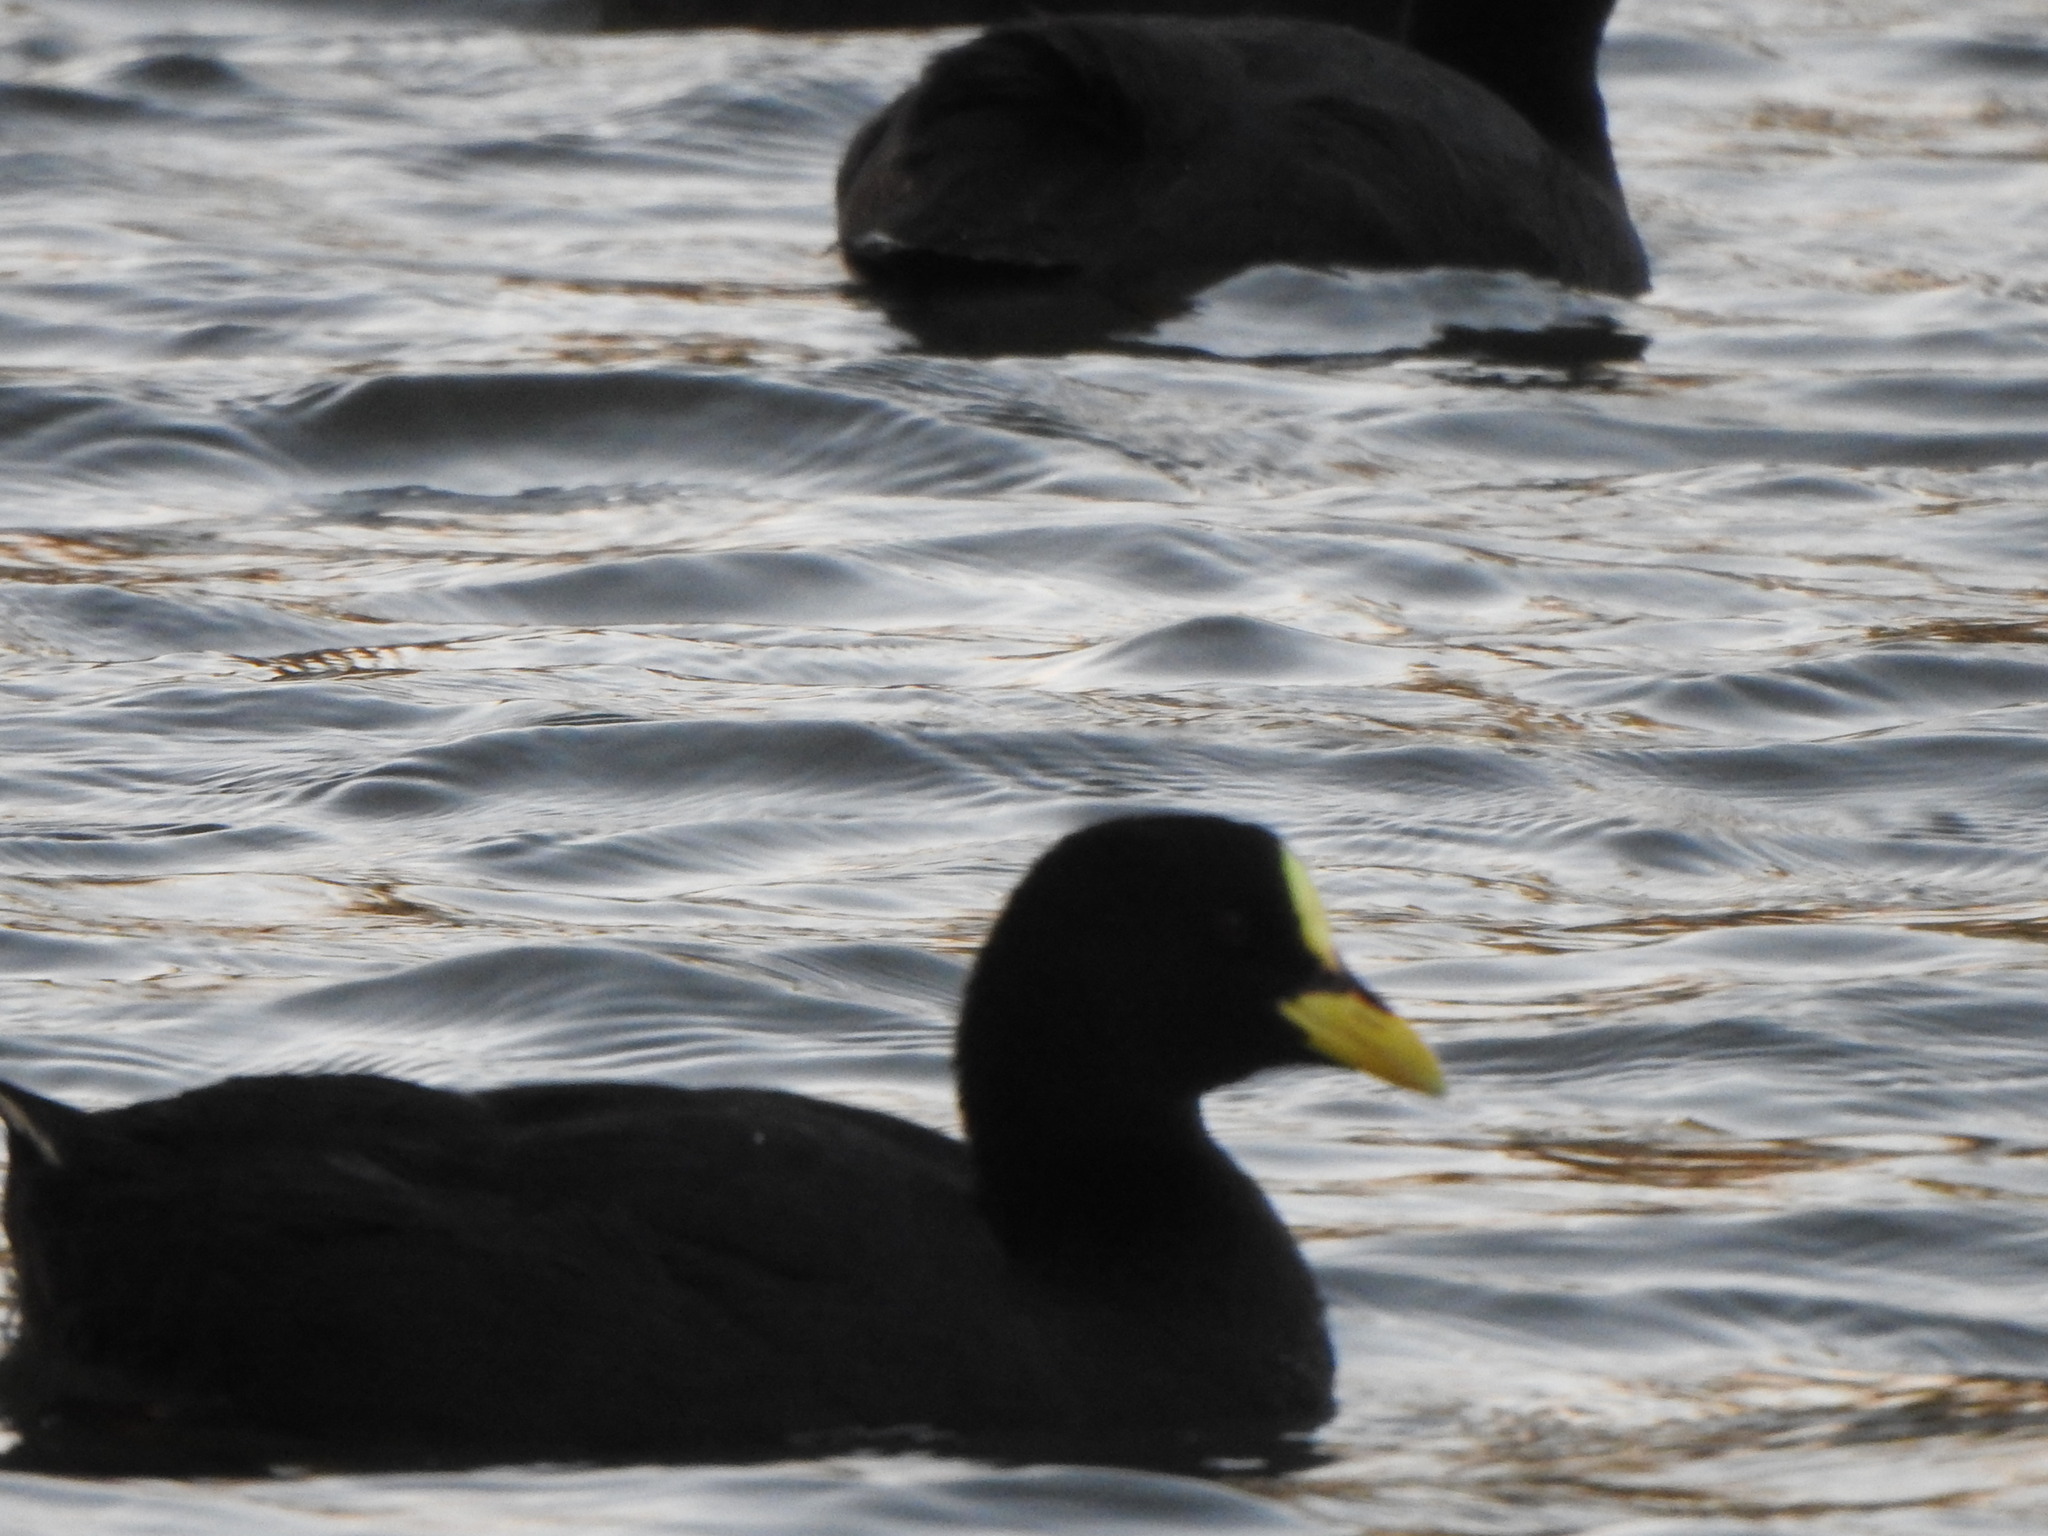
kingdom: Animalia
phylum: Chordata
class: Aves
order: Gruiformes
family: Rallidae
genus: Fulica
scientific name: Fulica armillata
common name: Red-gartered coot
